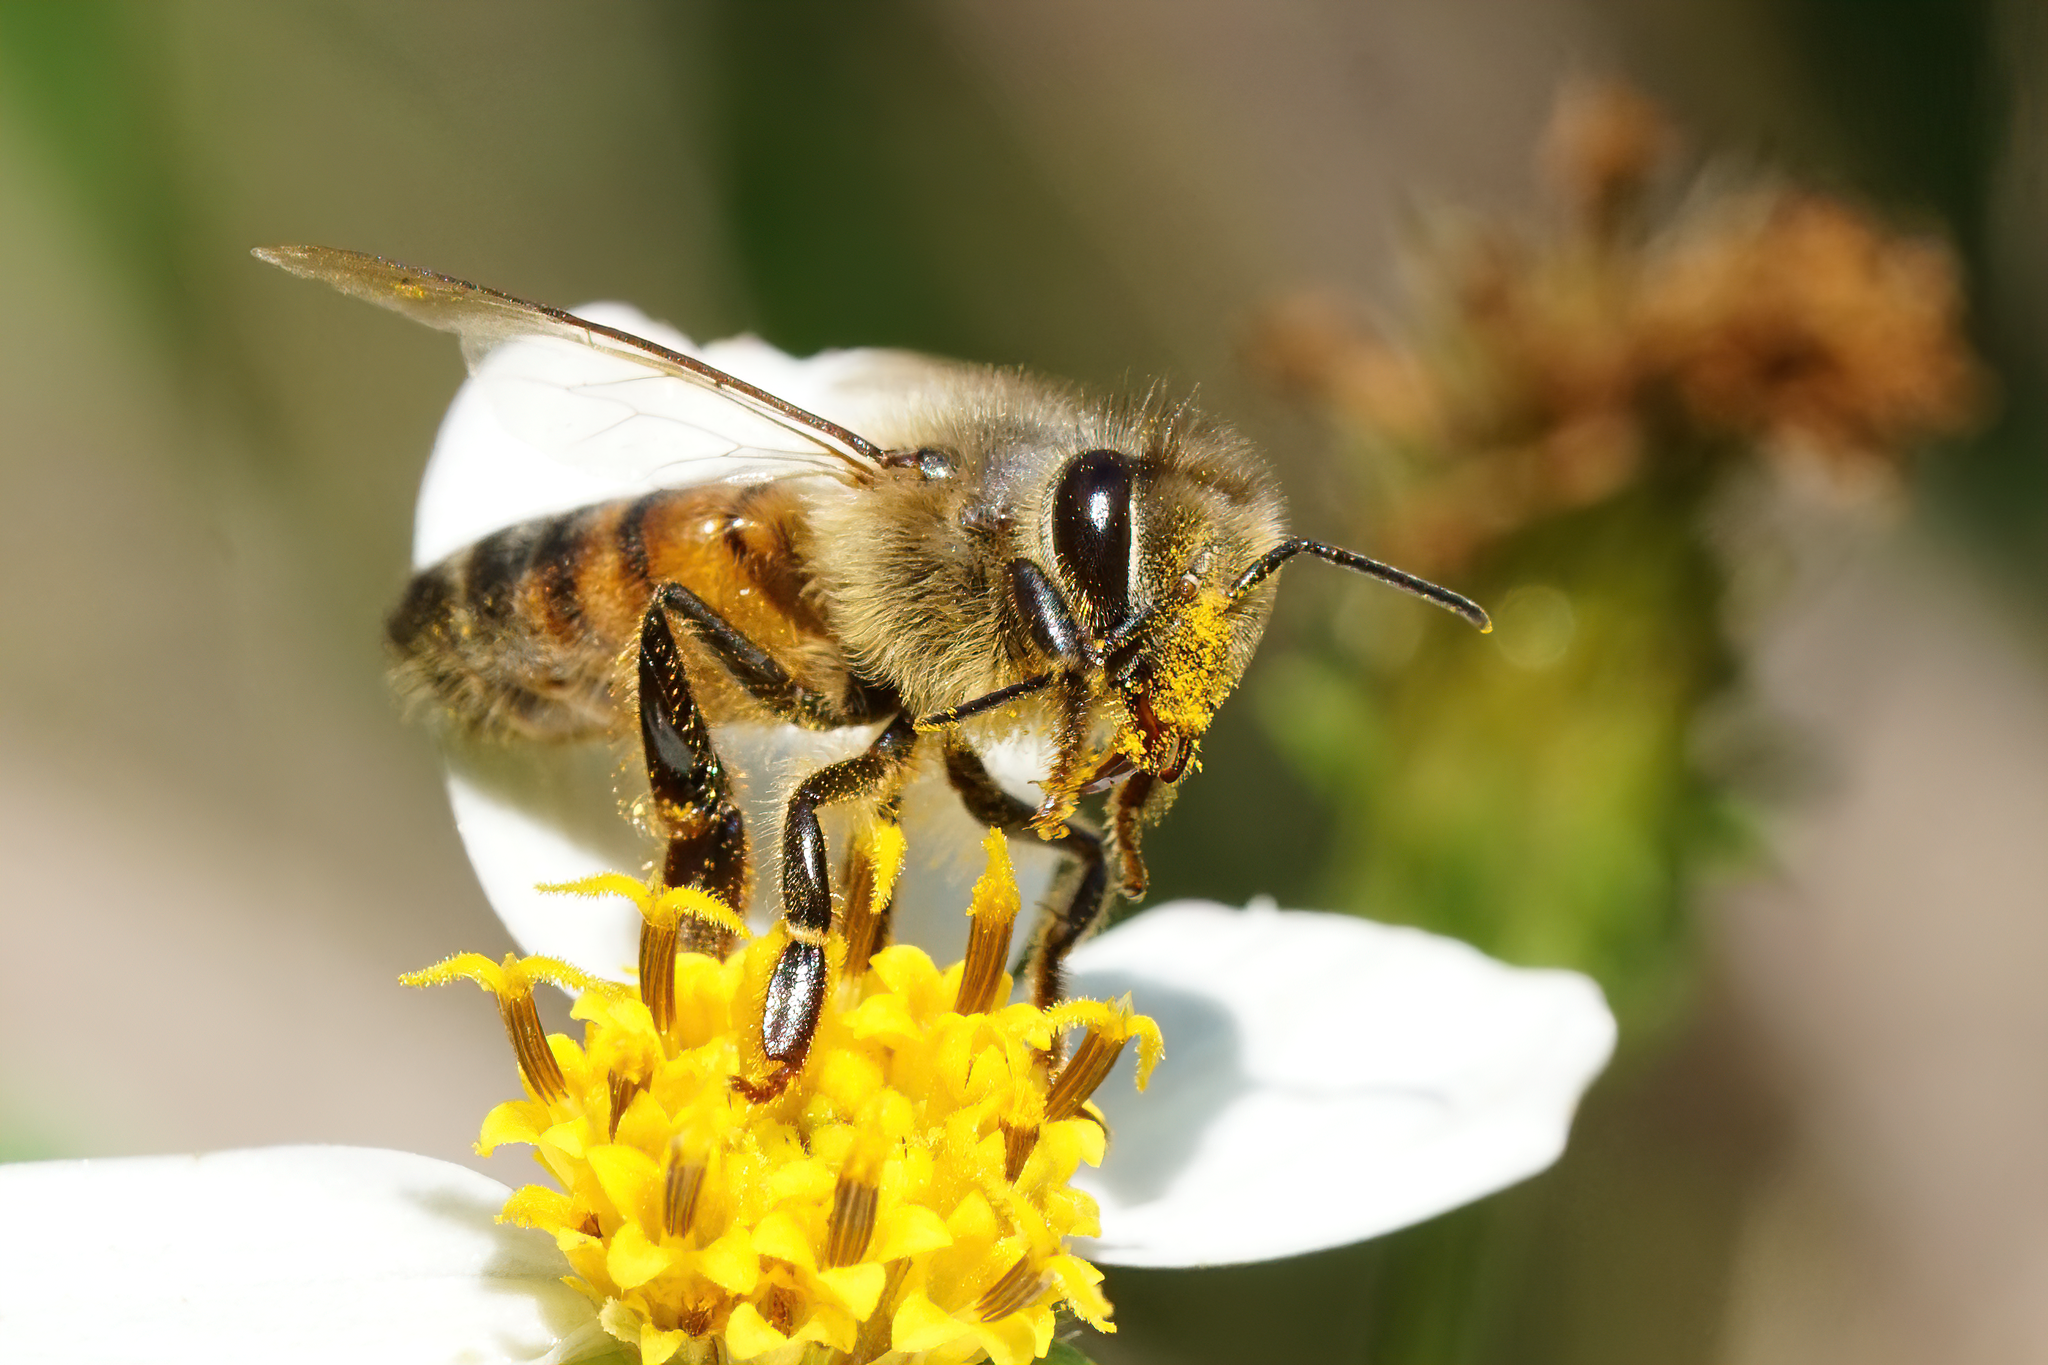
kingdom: Animalia
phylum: Arthropoda
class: Insecta
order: Hymenoptera
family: Apidae
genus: Apis
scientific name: Apis mellifera
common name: Honey bee
